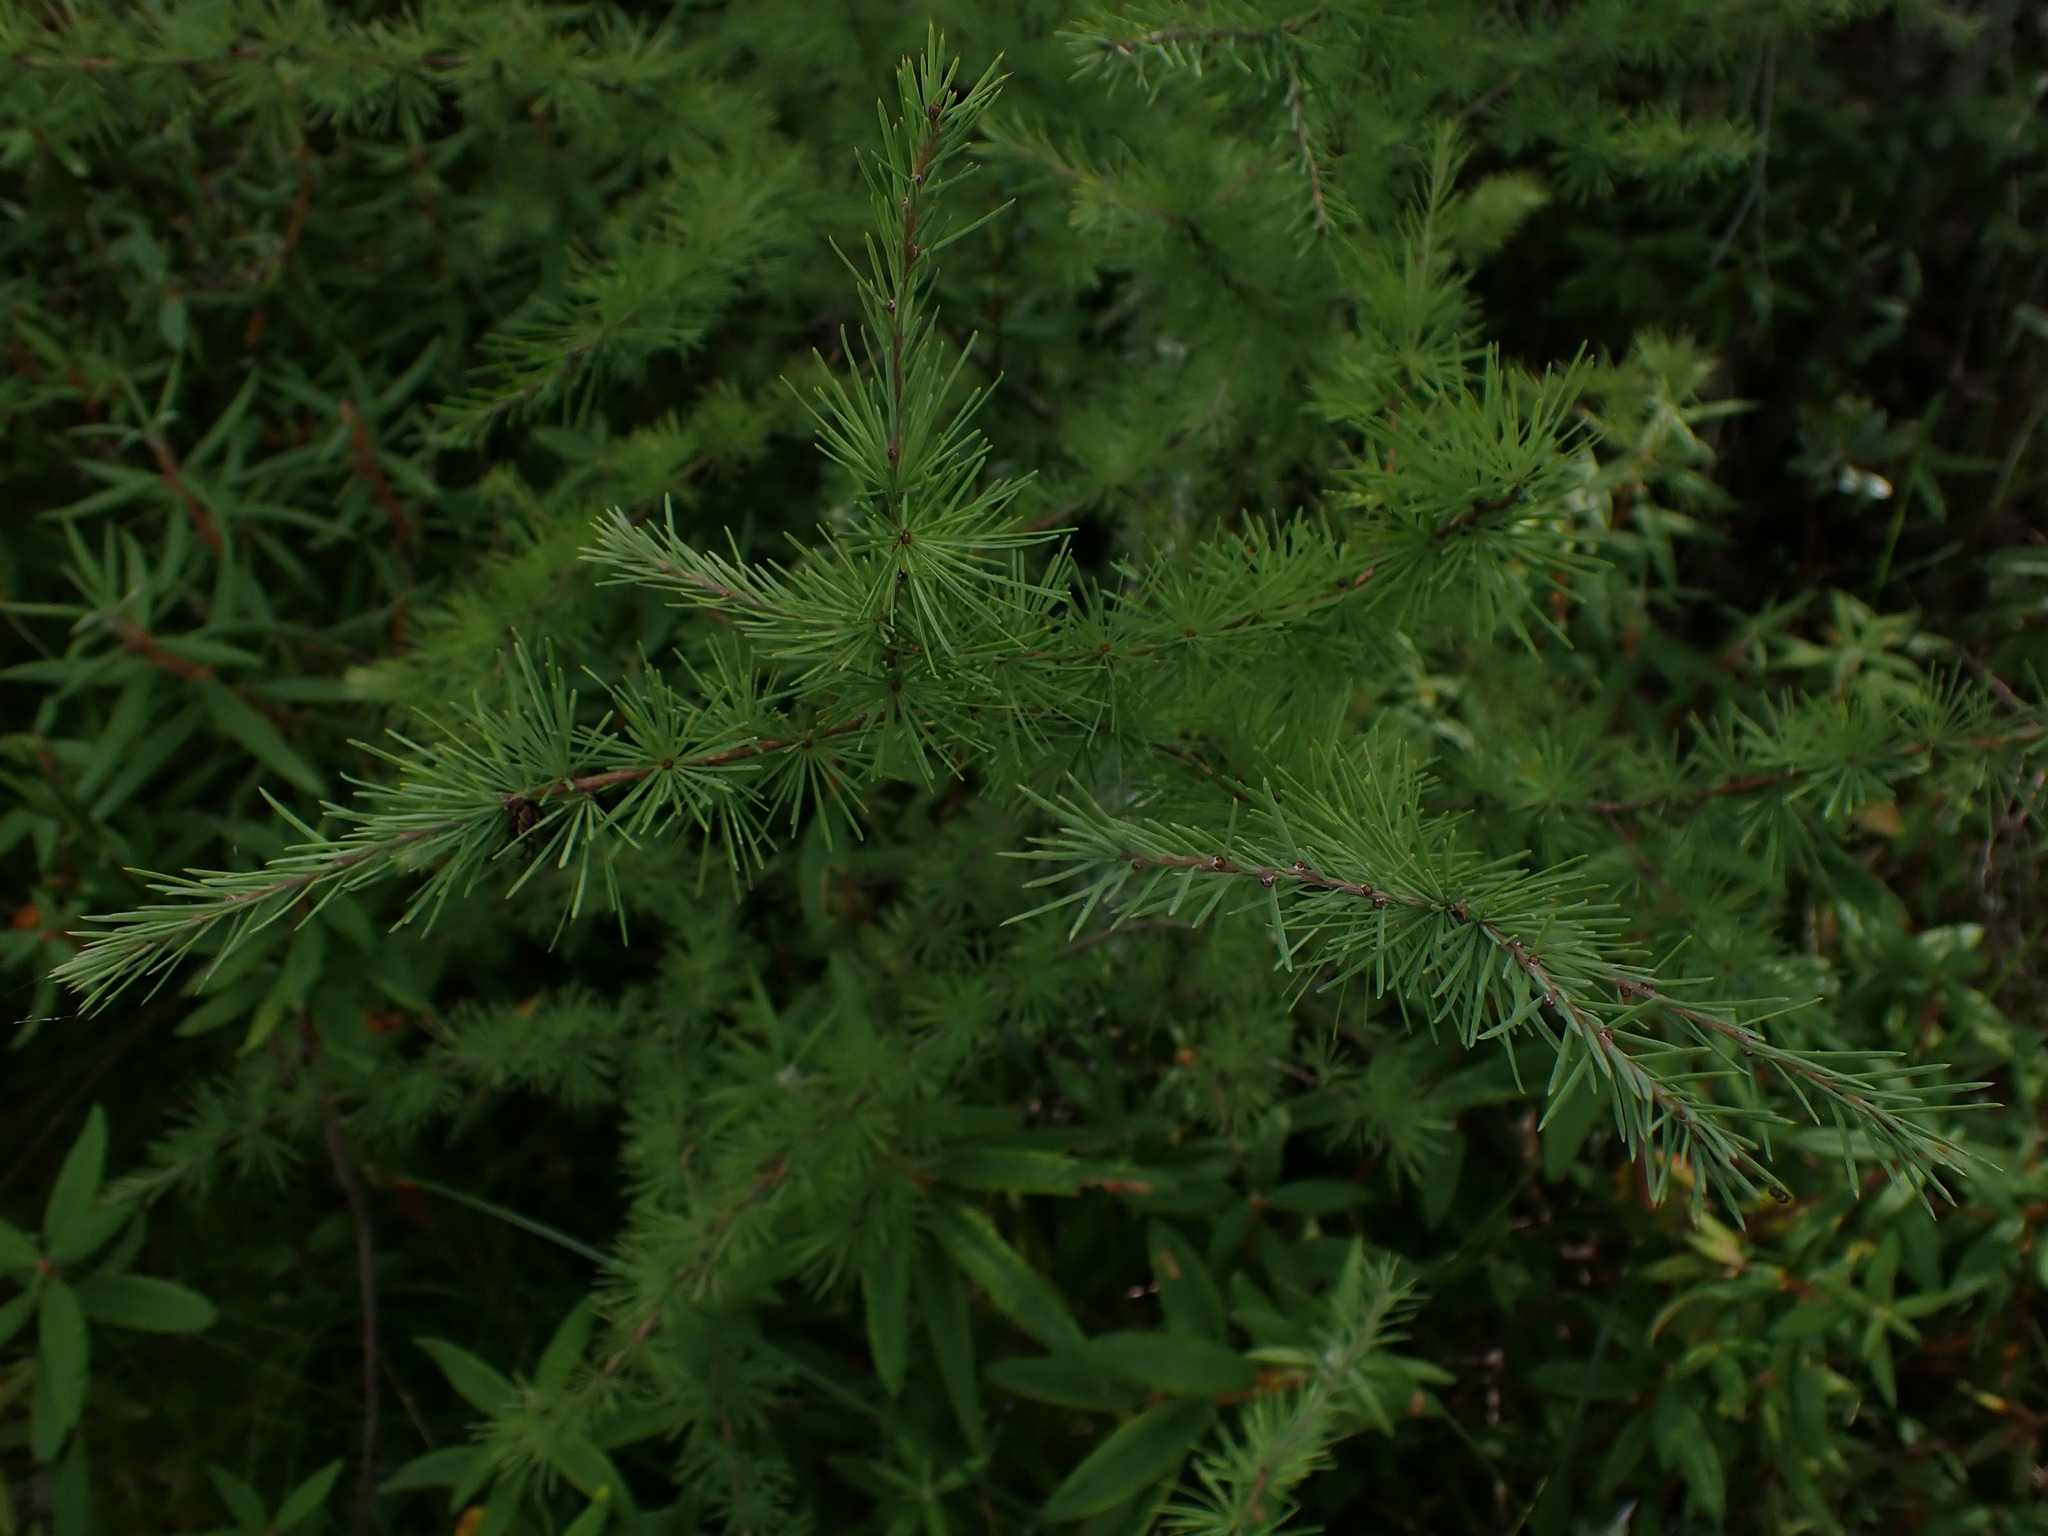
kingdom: Plantae
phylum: Tracheophyta
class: Pinopsida
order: Pinales
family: Pinaceae
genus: Larix
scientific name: Larix laricina
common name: American larch
